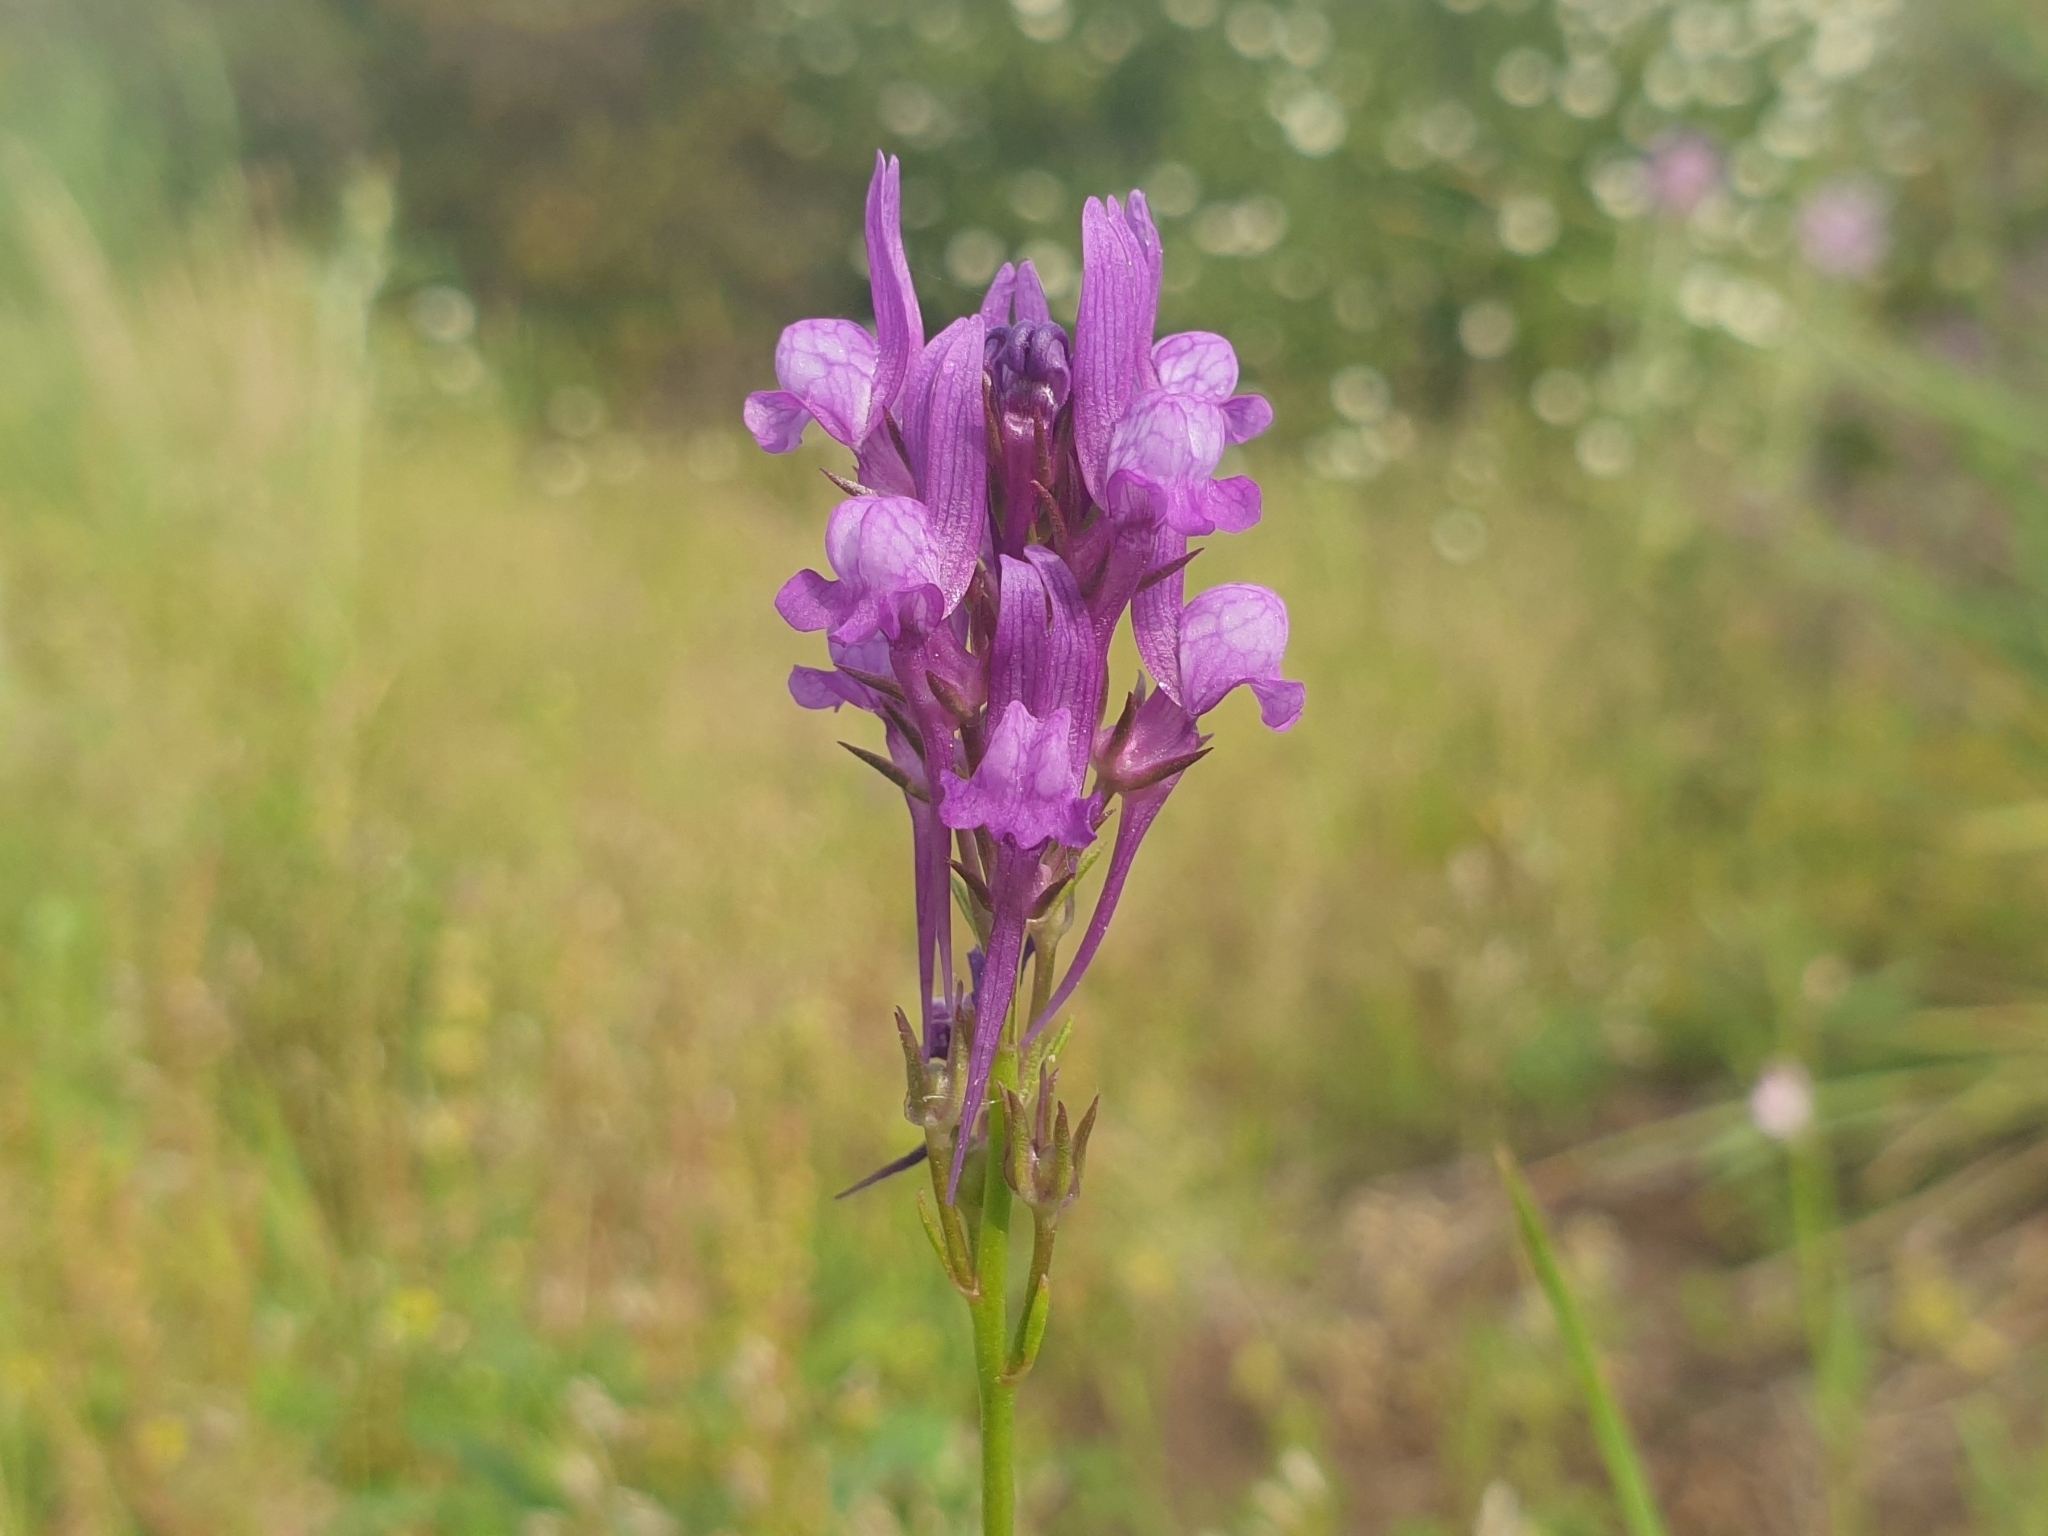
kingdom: Plantae
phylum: Tracheophyta
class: Magnoliopsida
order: Lamiales
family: Plantaginaceae
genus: Linaria
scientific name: Linaria pelisseriana
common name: Jersey toadflax
